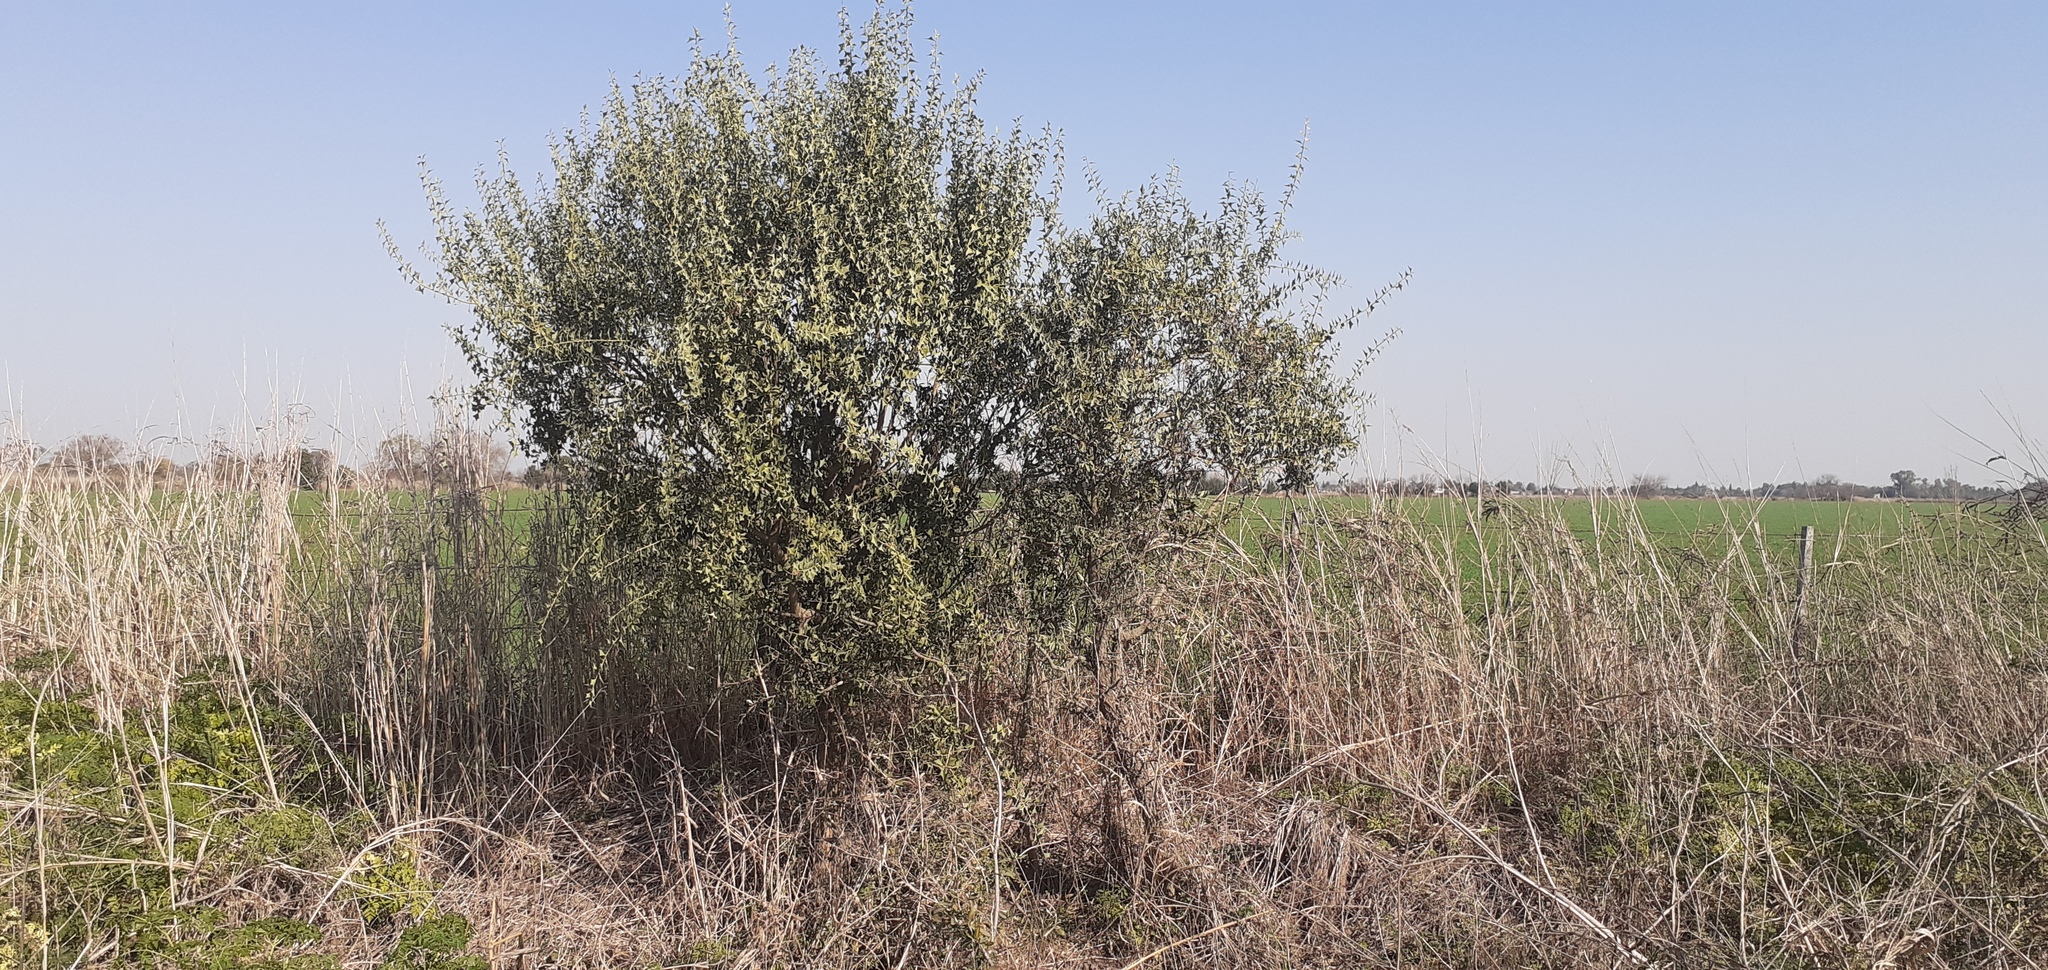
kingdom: Plantae
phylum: Tracheophyta
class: Magnoliopsida
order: Santalales
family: Cervantesiaceae
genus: Jodina
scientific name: Jodina rhombifolia
